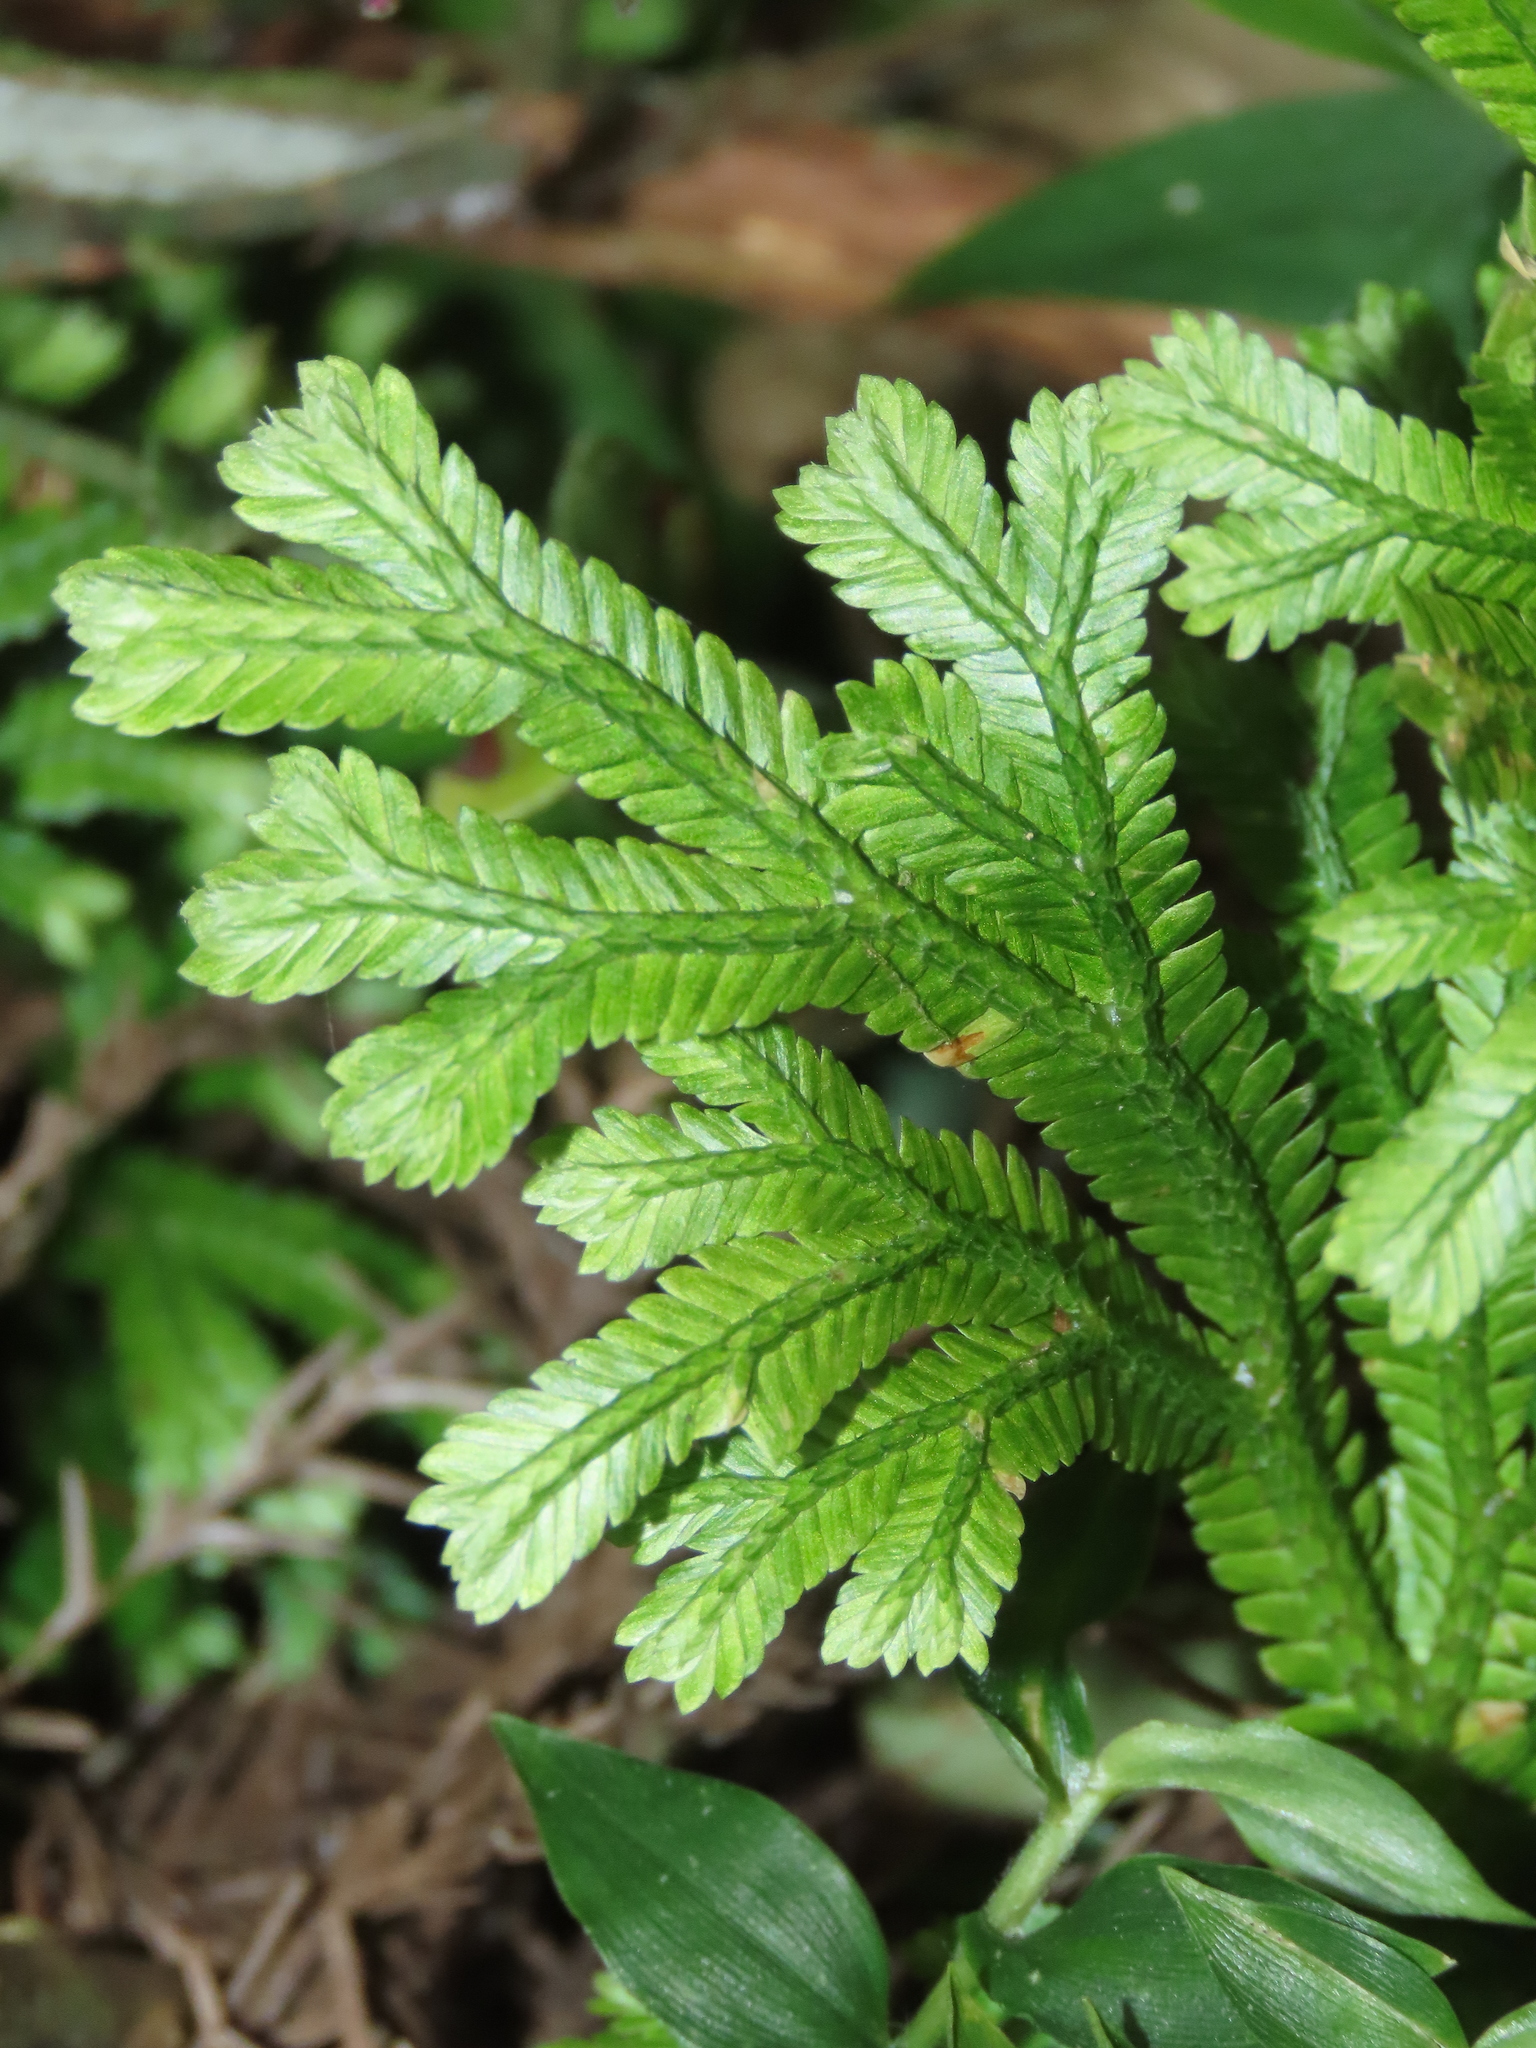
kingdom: Plantae
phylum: Tracheophyta
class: Lycopodiopsida
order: Selaginellales
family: Selaginellaceae
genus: Selaginella
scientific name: Selaginella doederleinii
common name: Greater selaginella
